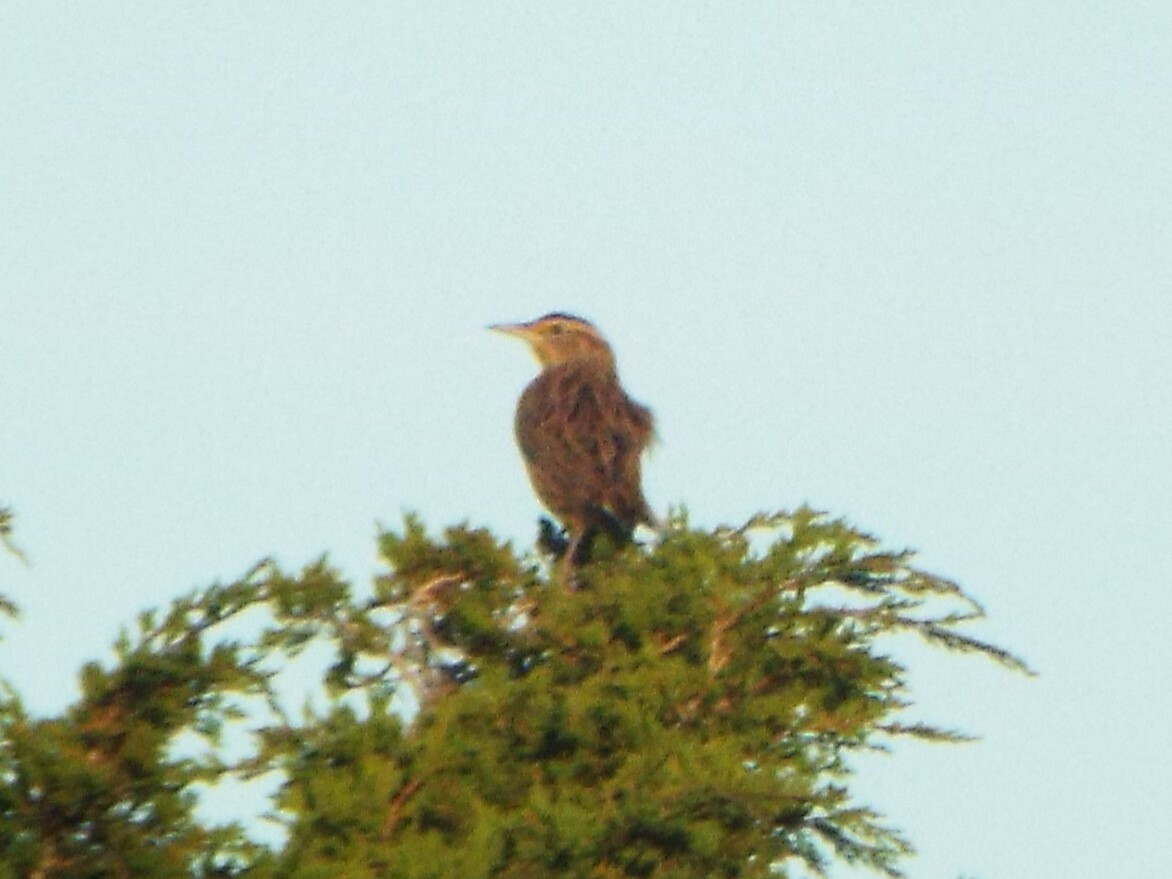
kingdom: Animalia
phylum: Chordata
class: Aves
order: Passeriformes
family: Icteridae
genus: Sturnella
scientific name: Sturnella magna
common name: Eastern meadowlark
